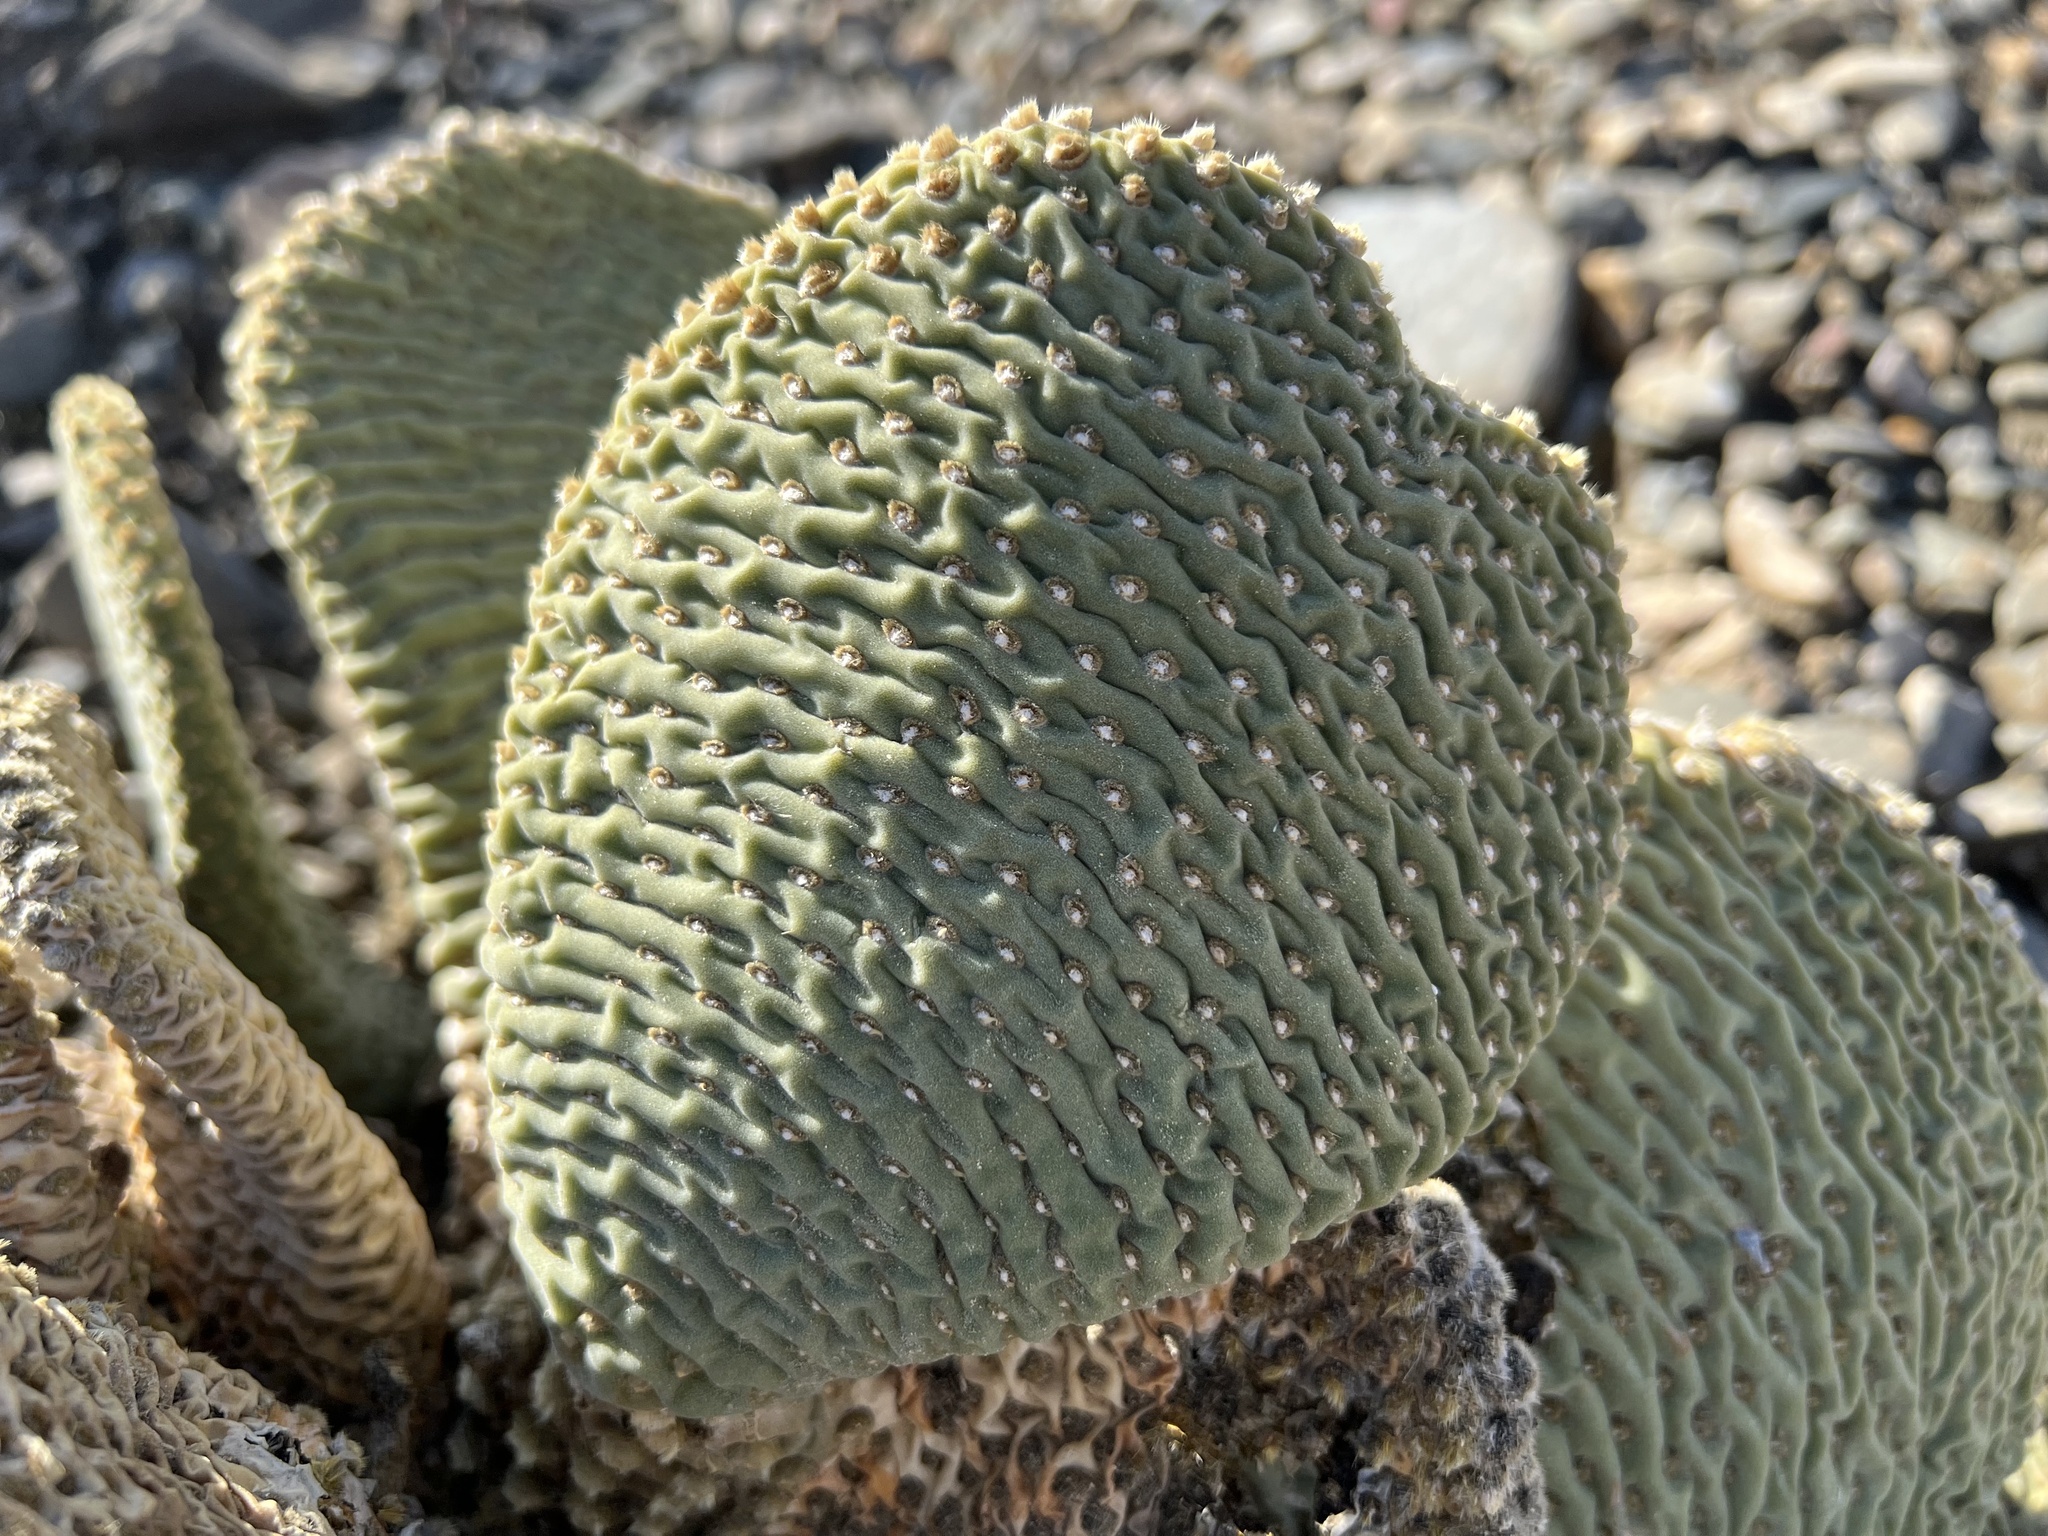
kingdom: Plantae
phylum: Tracheophyta
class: Magnoliopsida
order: Caryophyllales
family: Cactaceae
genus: Opuntia
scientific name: Opuntia basilaris
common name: Beavertail prickly-pear
